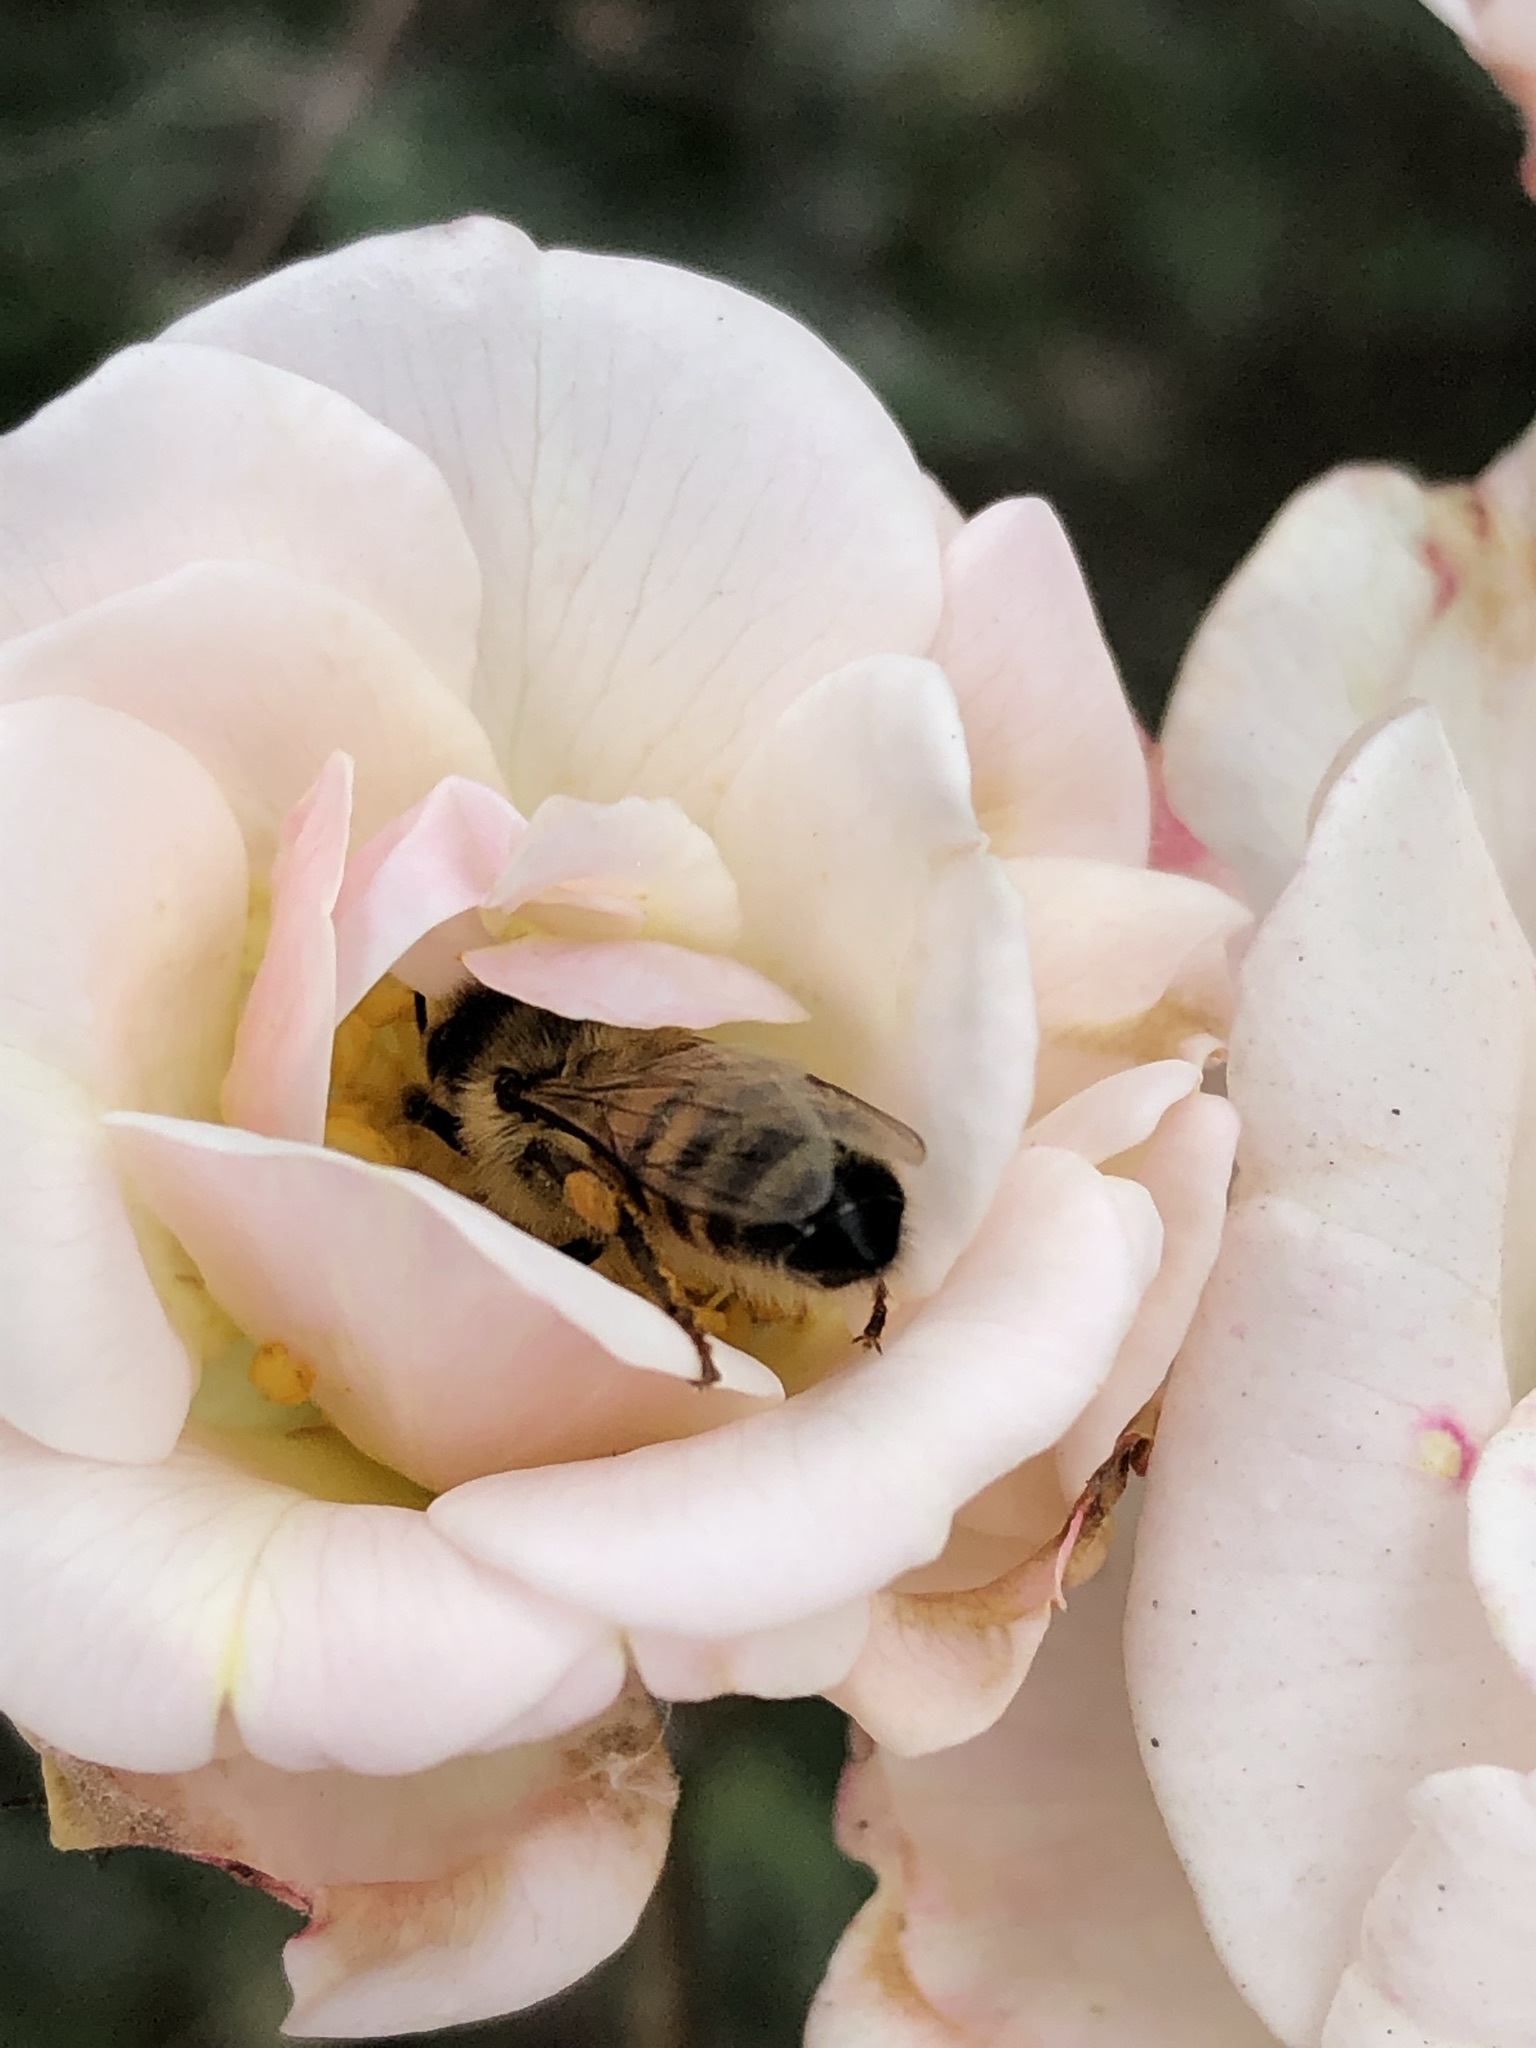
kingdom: Animalia
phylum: Arthropoda
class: Insecta
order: Hymenoptera
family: Apidae
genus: Apis
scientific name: Apis mellifera
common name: Honey bee
